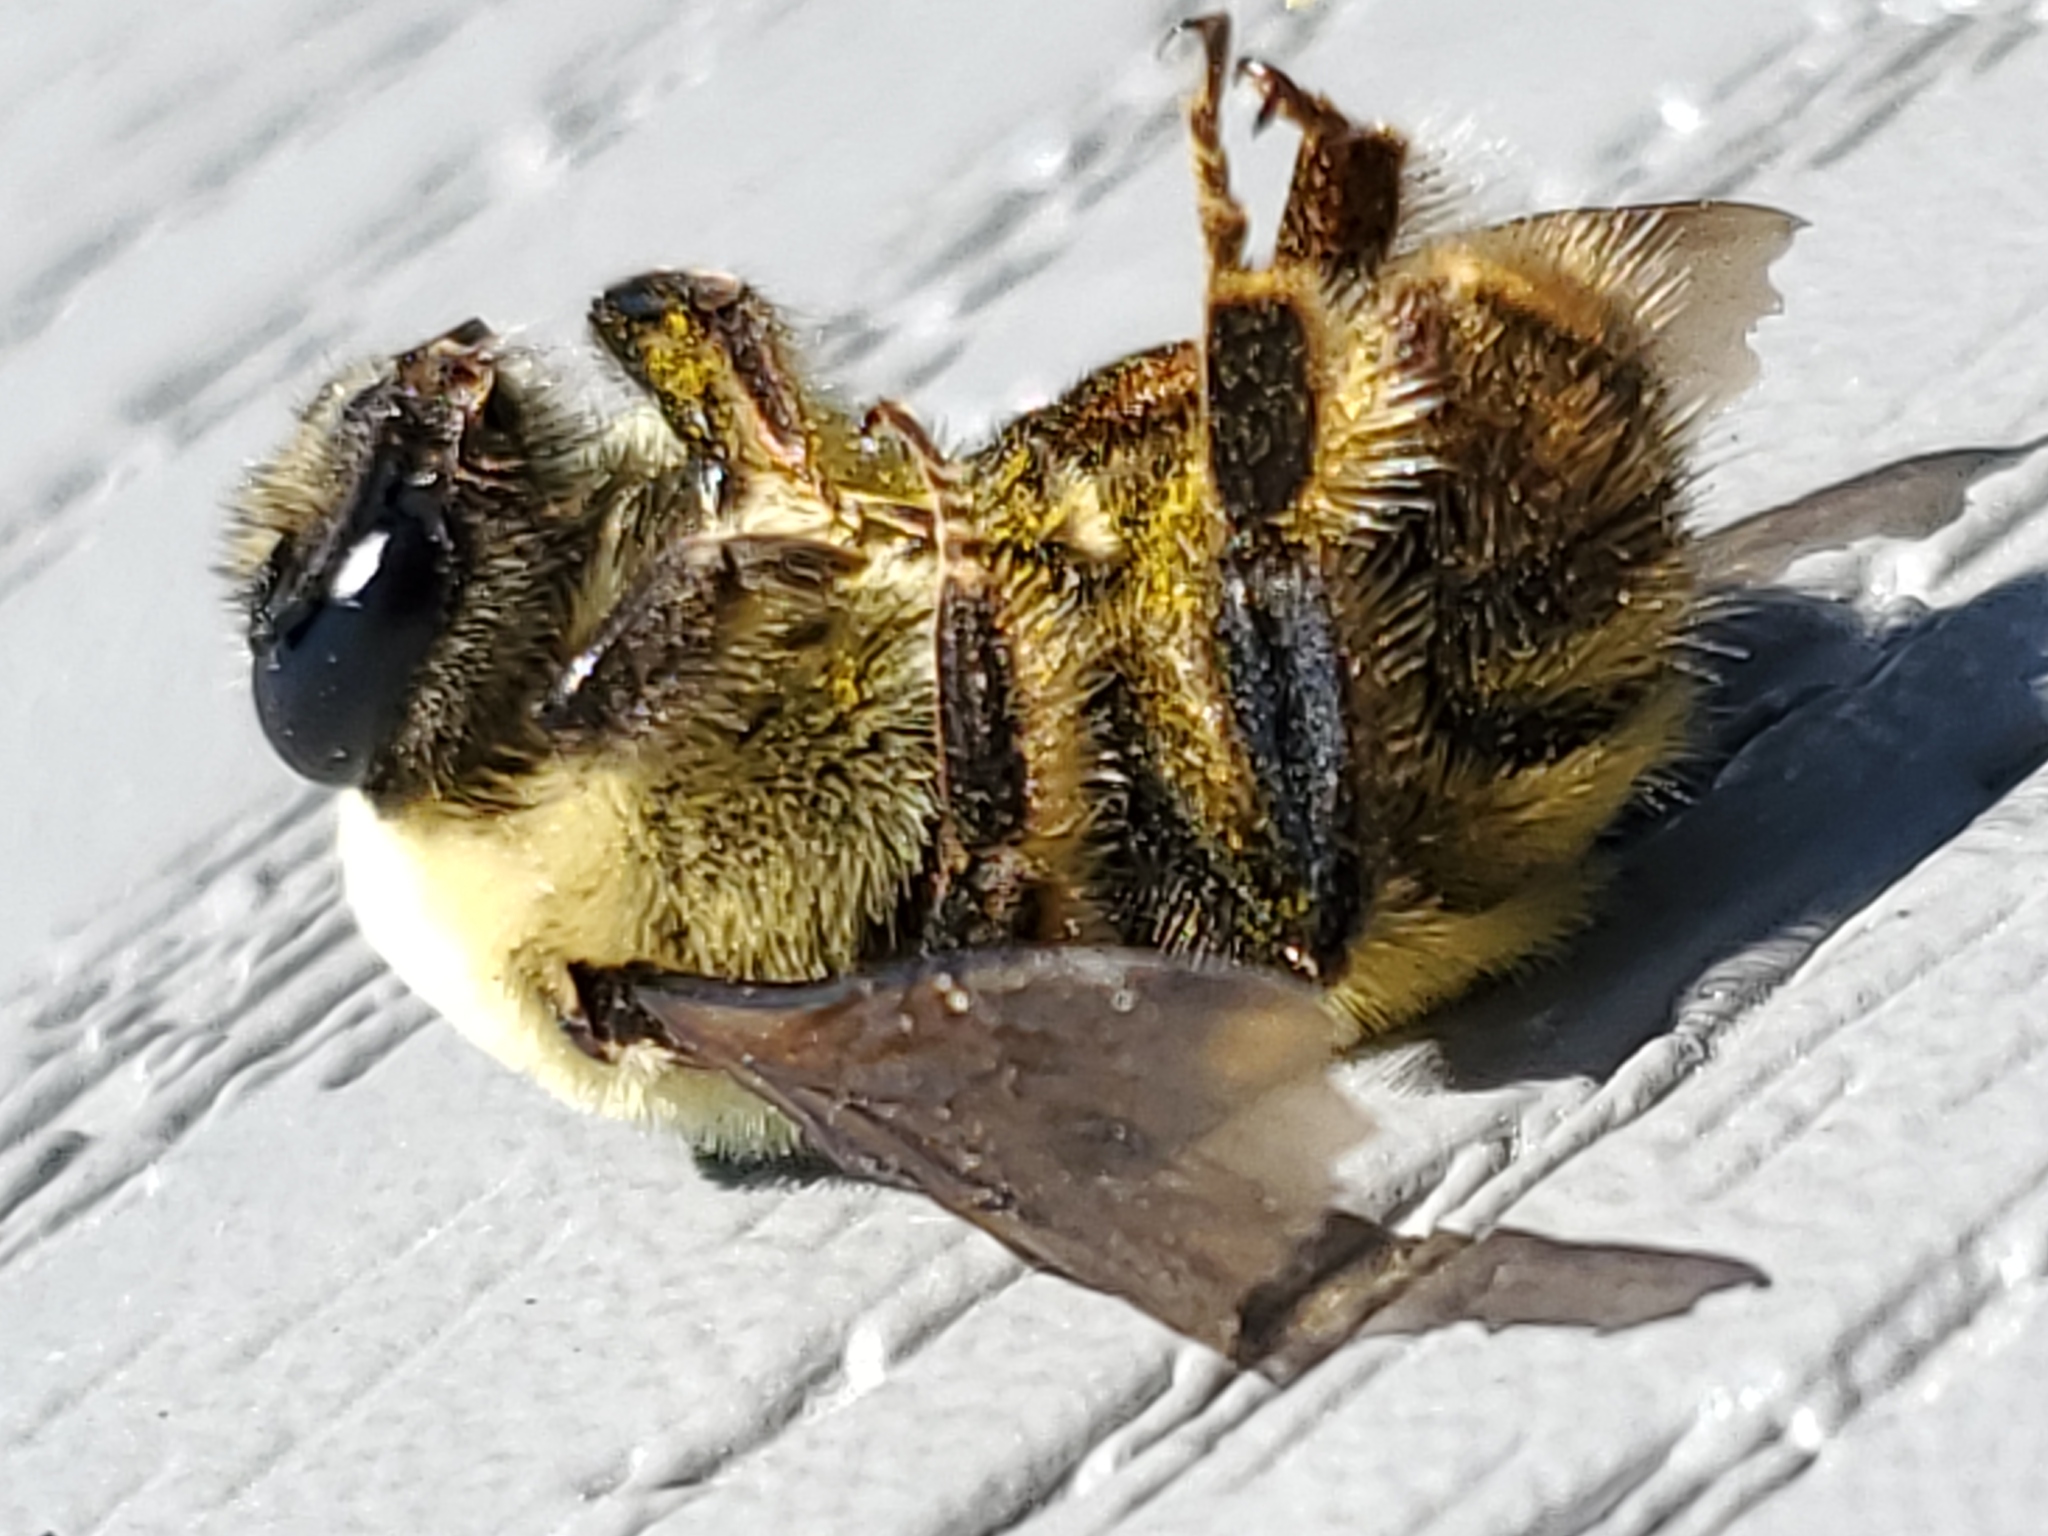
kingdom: Animalia
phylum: Arthropoda
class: Insecta
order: Hymenoptera
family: Apidae
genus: Bombus
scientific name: Bombus nevadensis
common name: Nevada bumble bee
